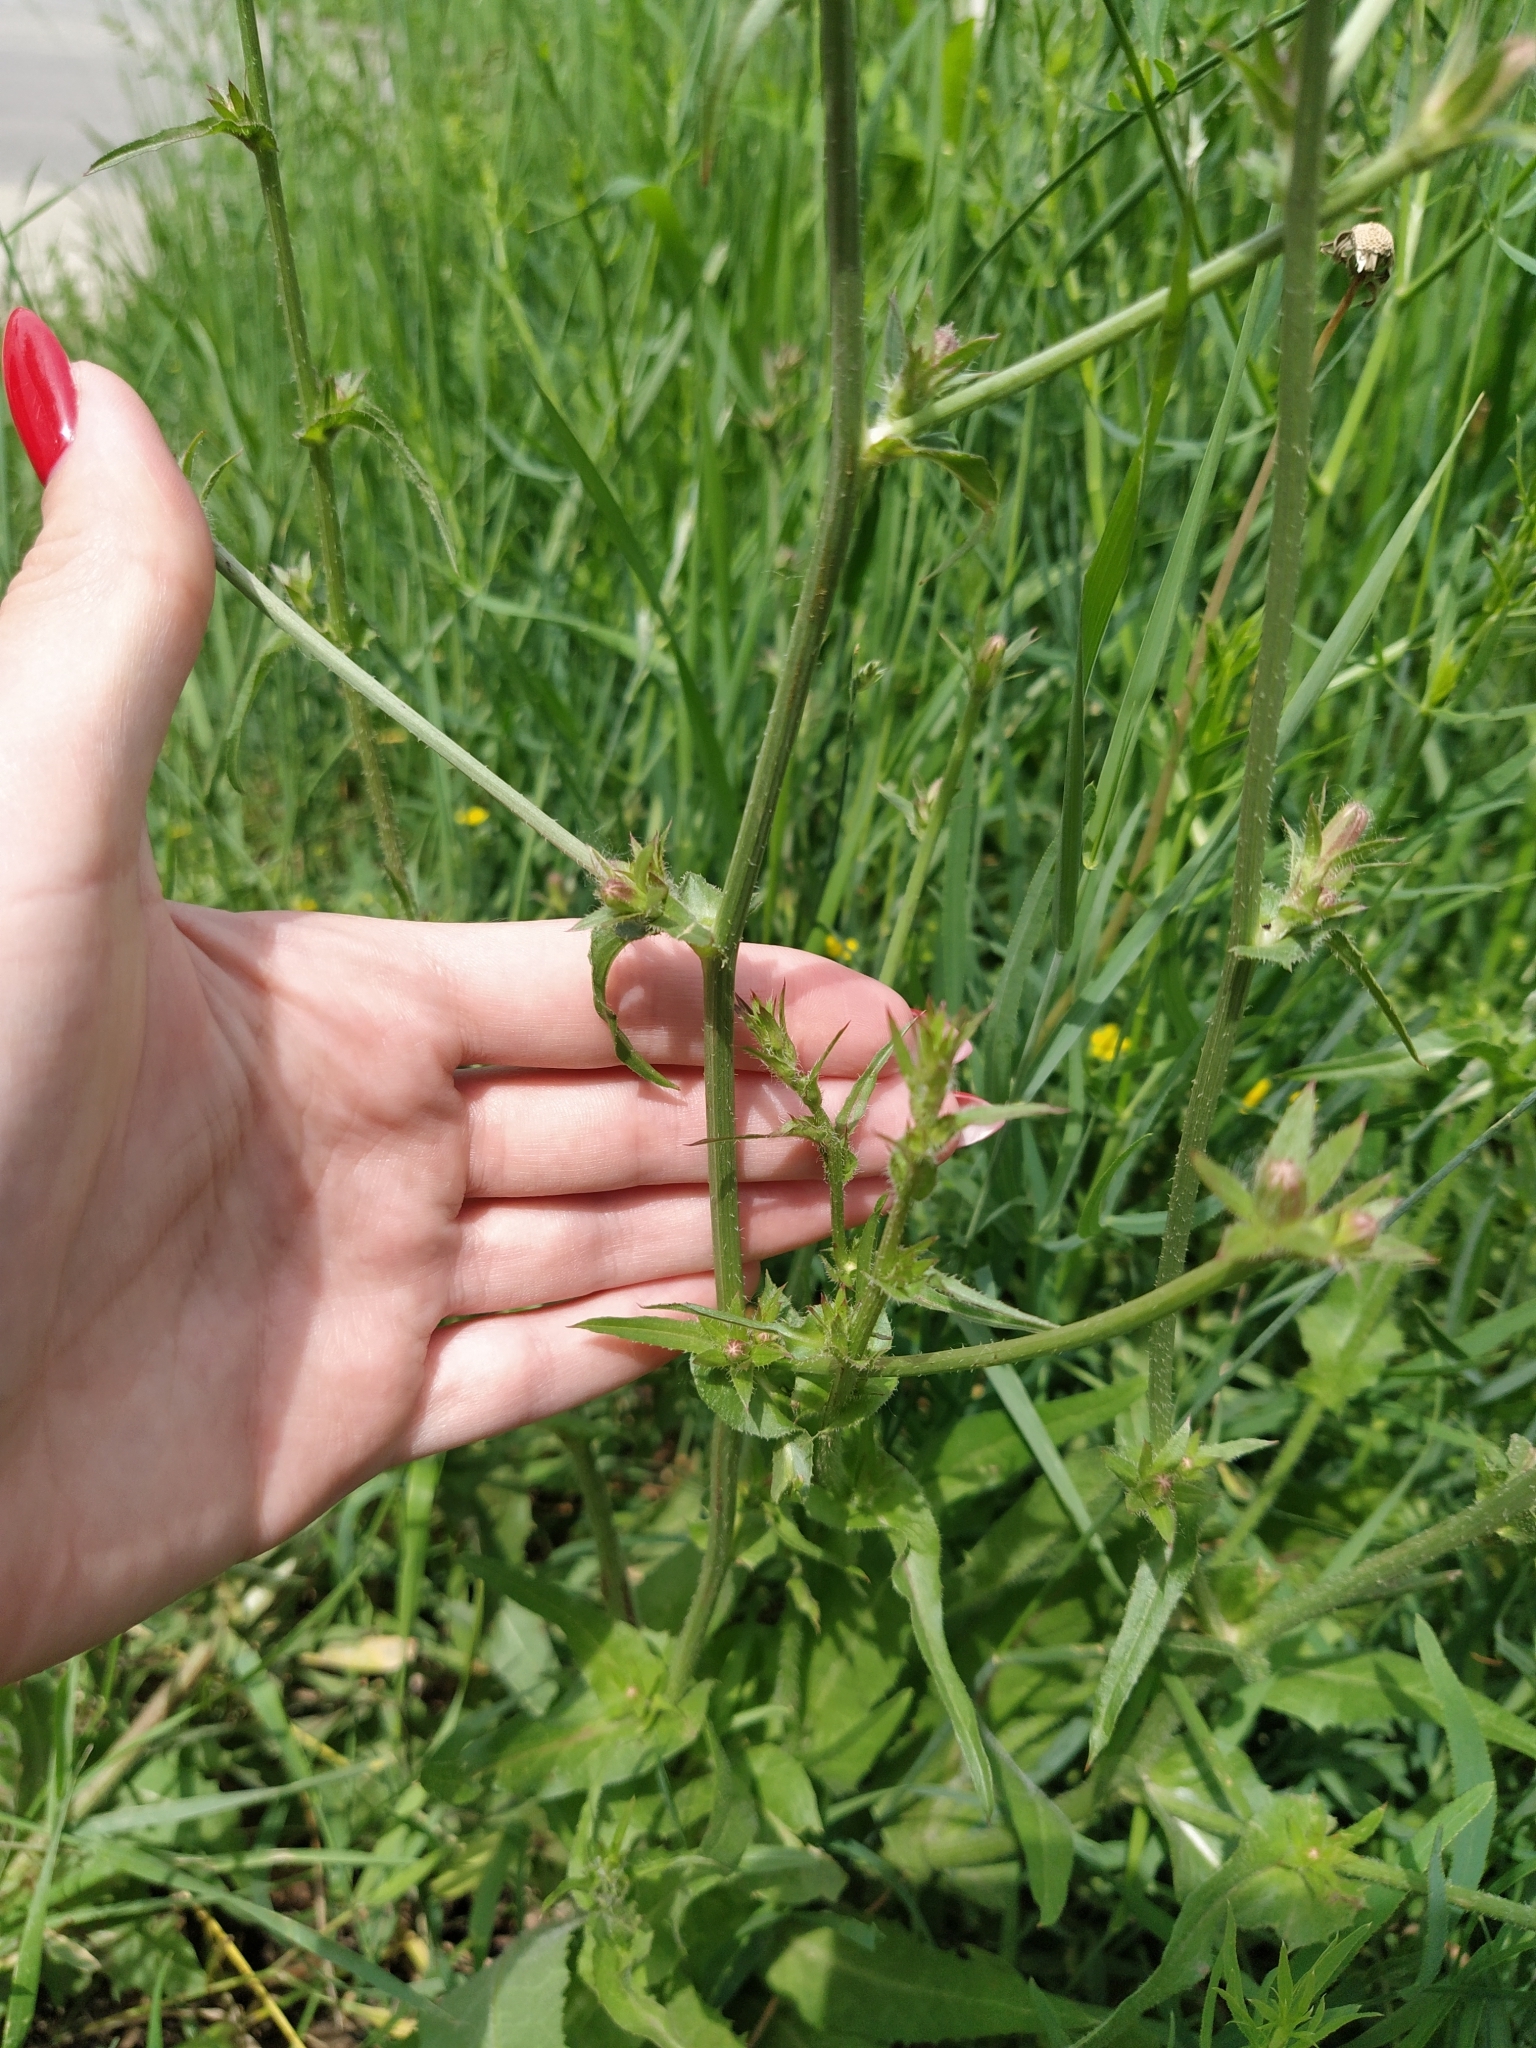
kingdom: Plantae
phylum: Tracheophyta
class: Magnoliopsida
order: Asterales
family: Asteraceae
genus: Cichorium
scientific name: Cichorium intybus
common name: Chicory
